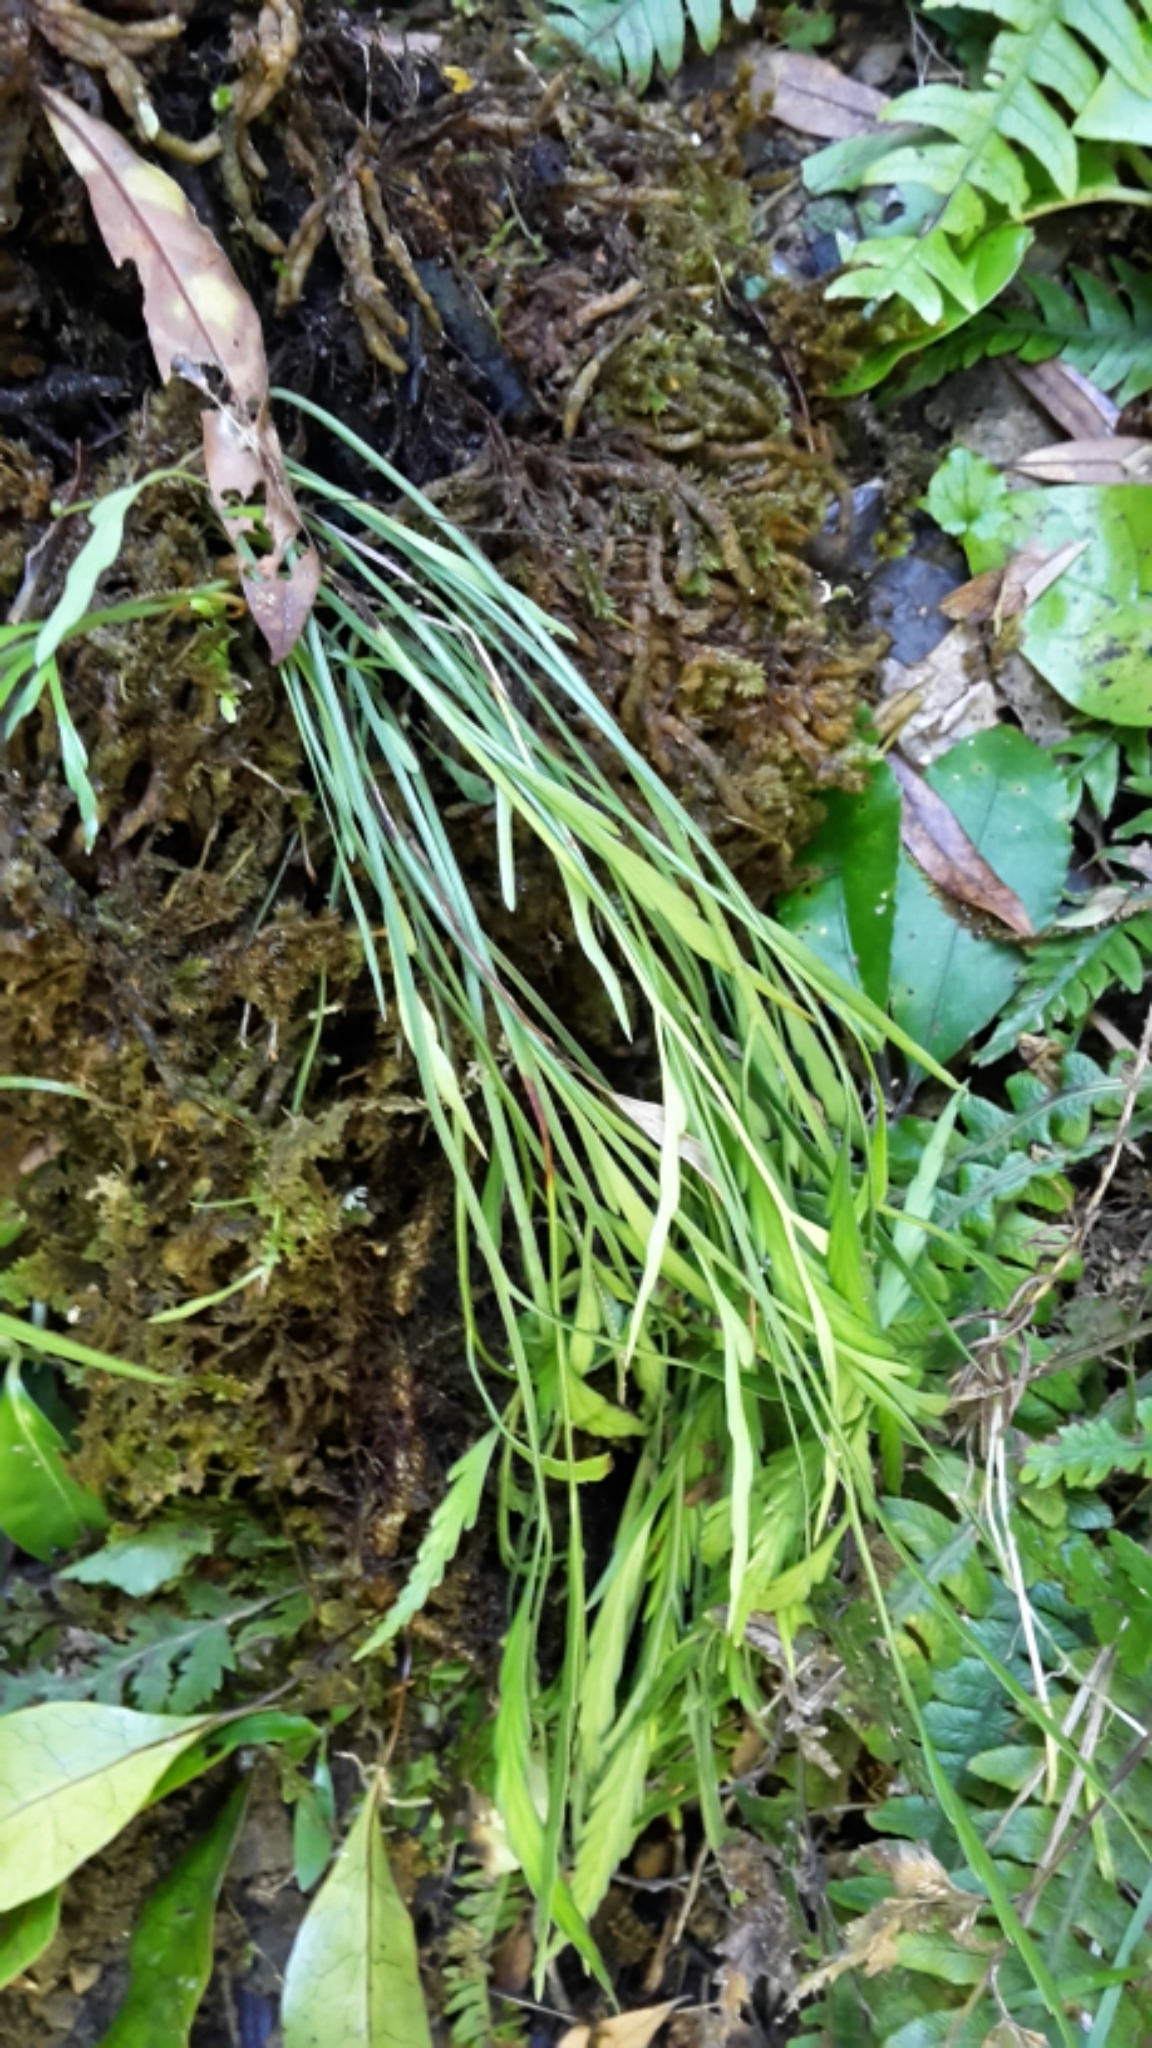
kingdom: Plantae
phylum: Tracheophyta
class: Polypodiopsida
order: Polypodiales
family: Aspleniaceae
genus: Asplenium
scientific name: Asplenium flaccidum
